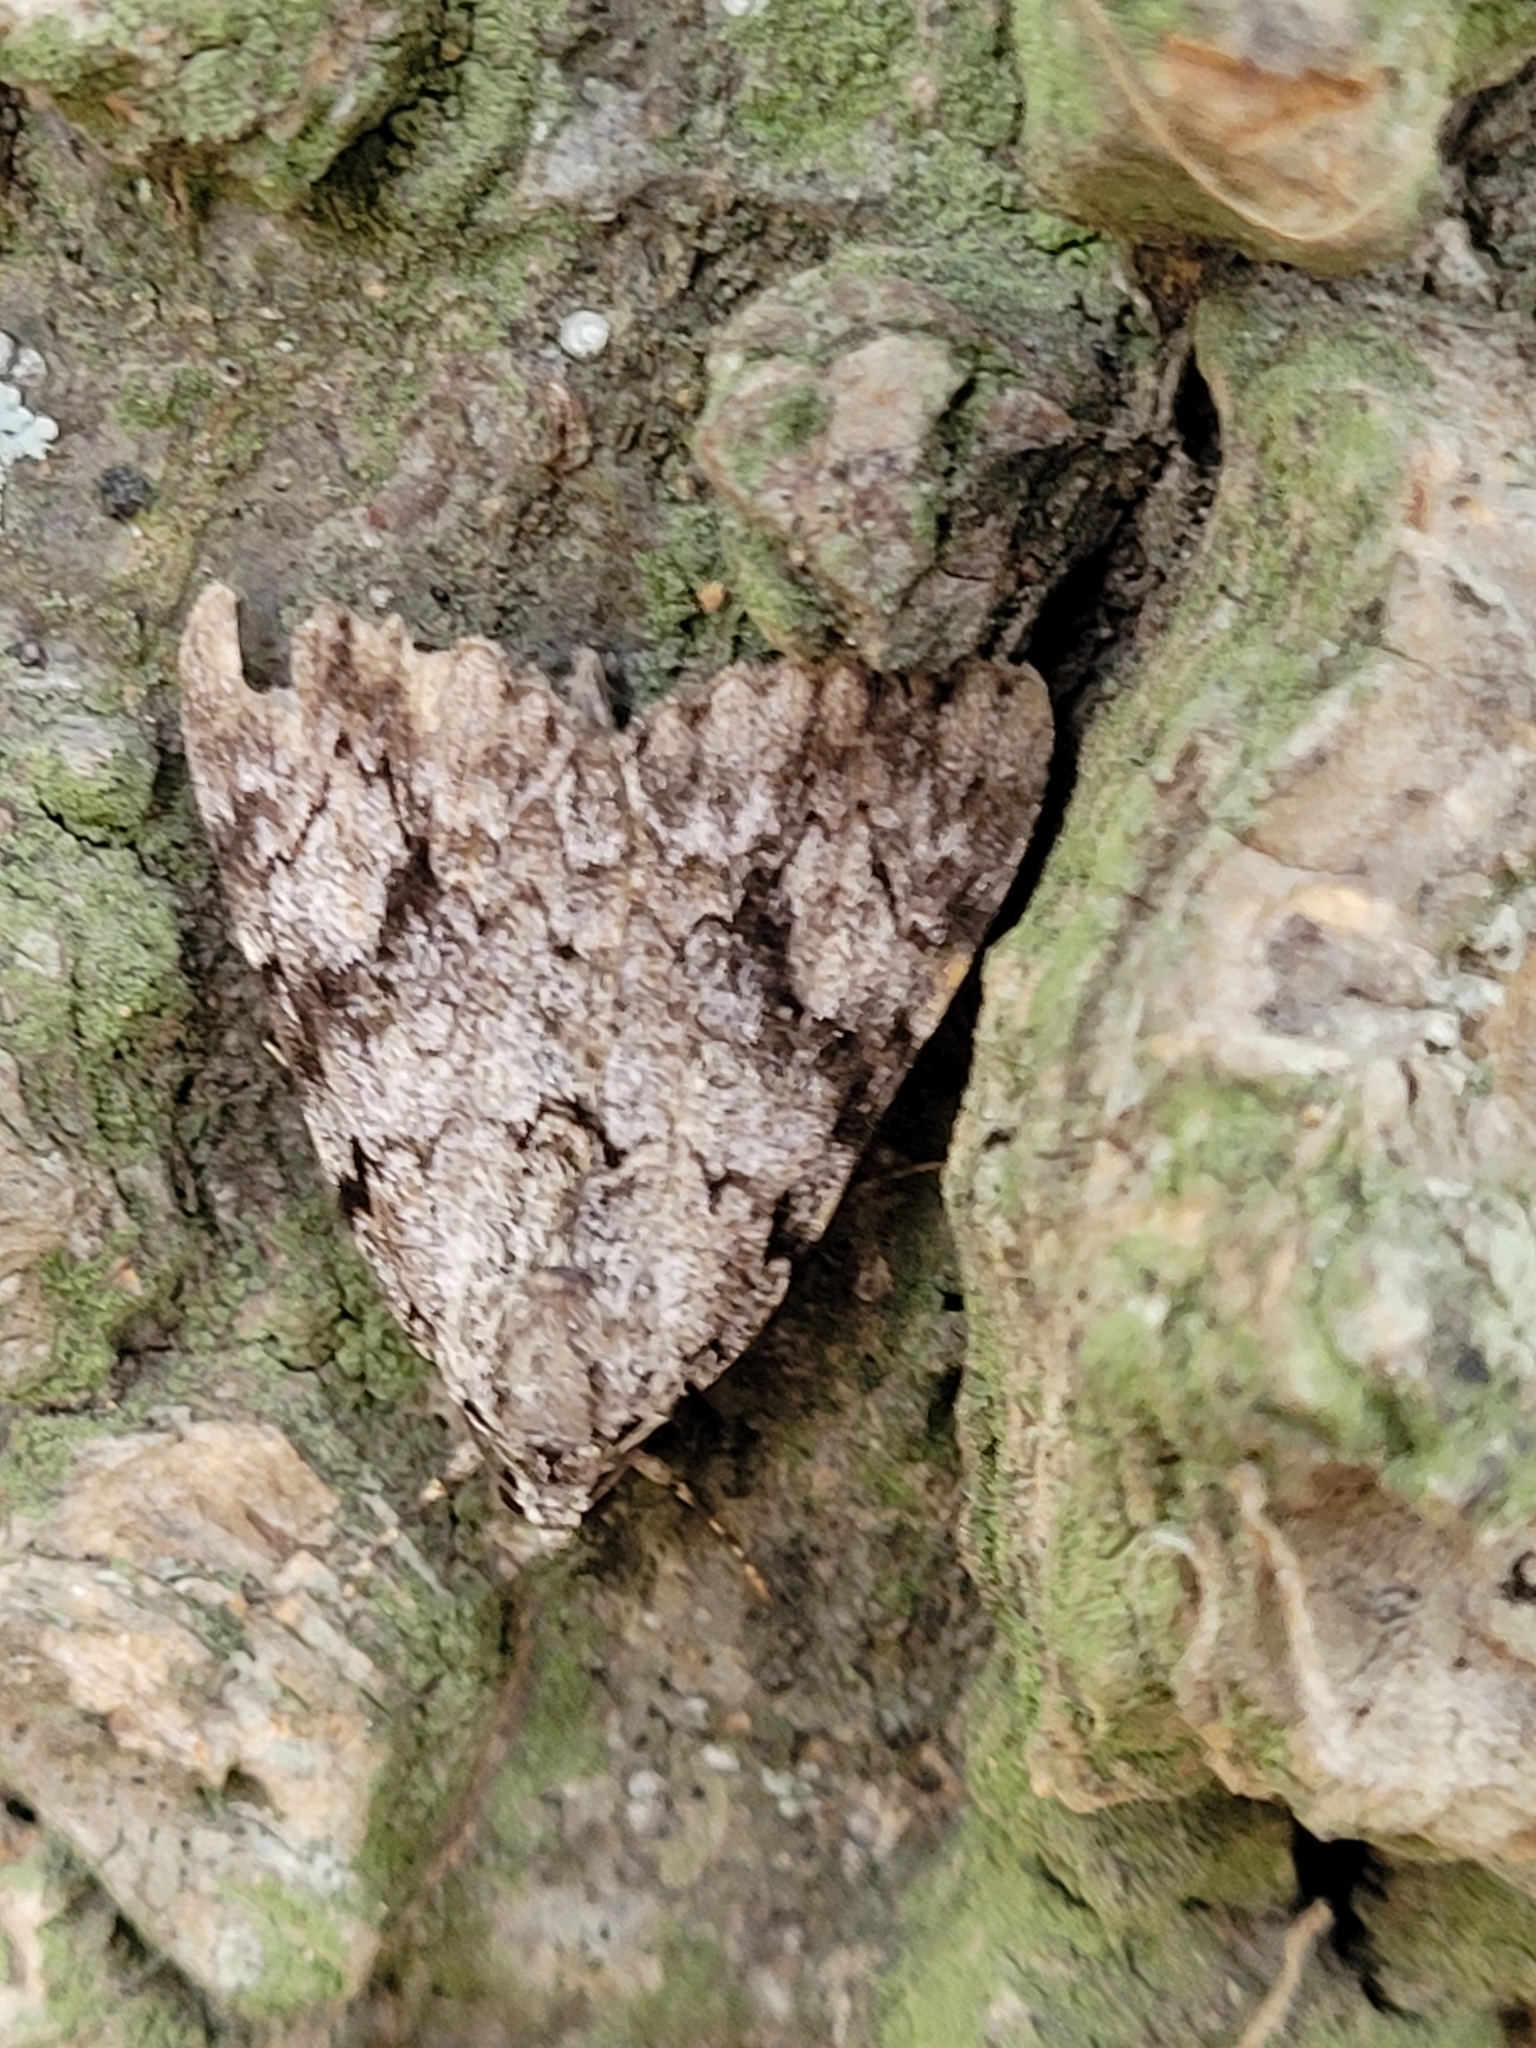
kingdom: Animalia
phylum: Arthropoda
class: Insecta
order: Lepidoptera
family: Erebidae
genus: Catocala
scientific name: Catocala amica
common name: Girlfriend underwing
